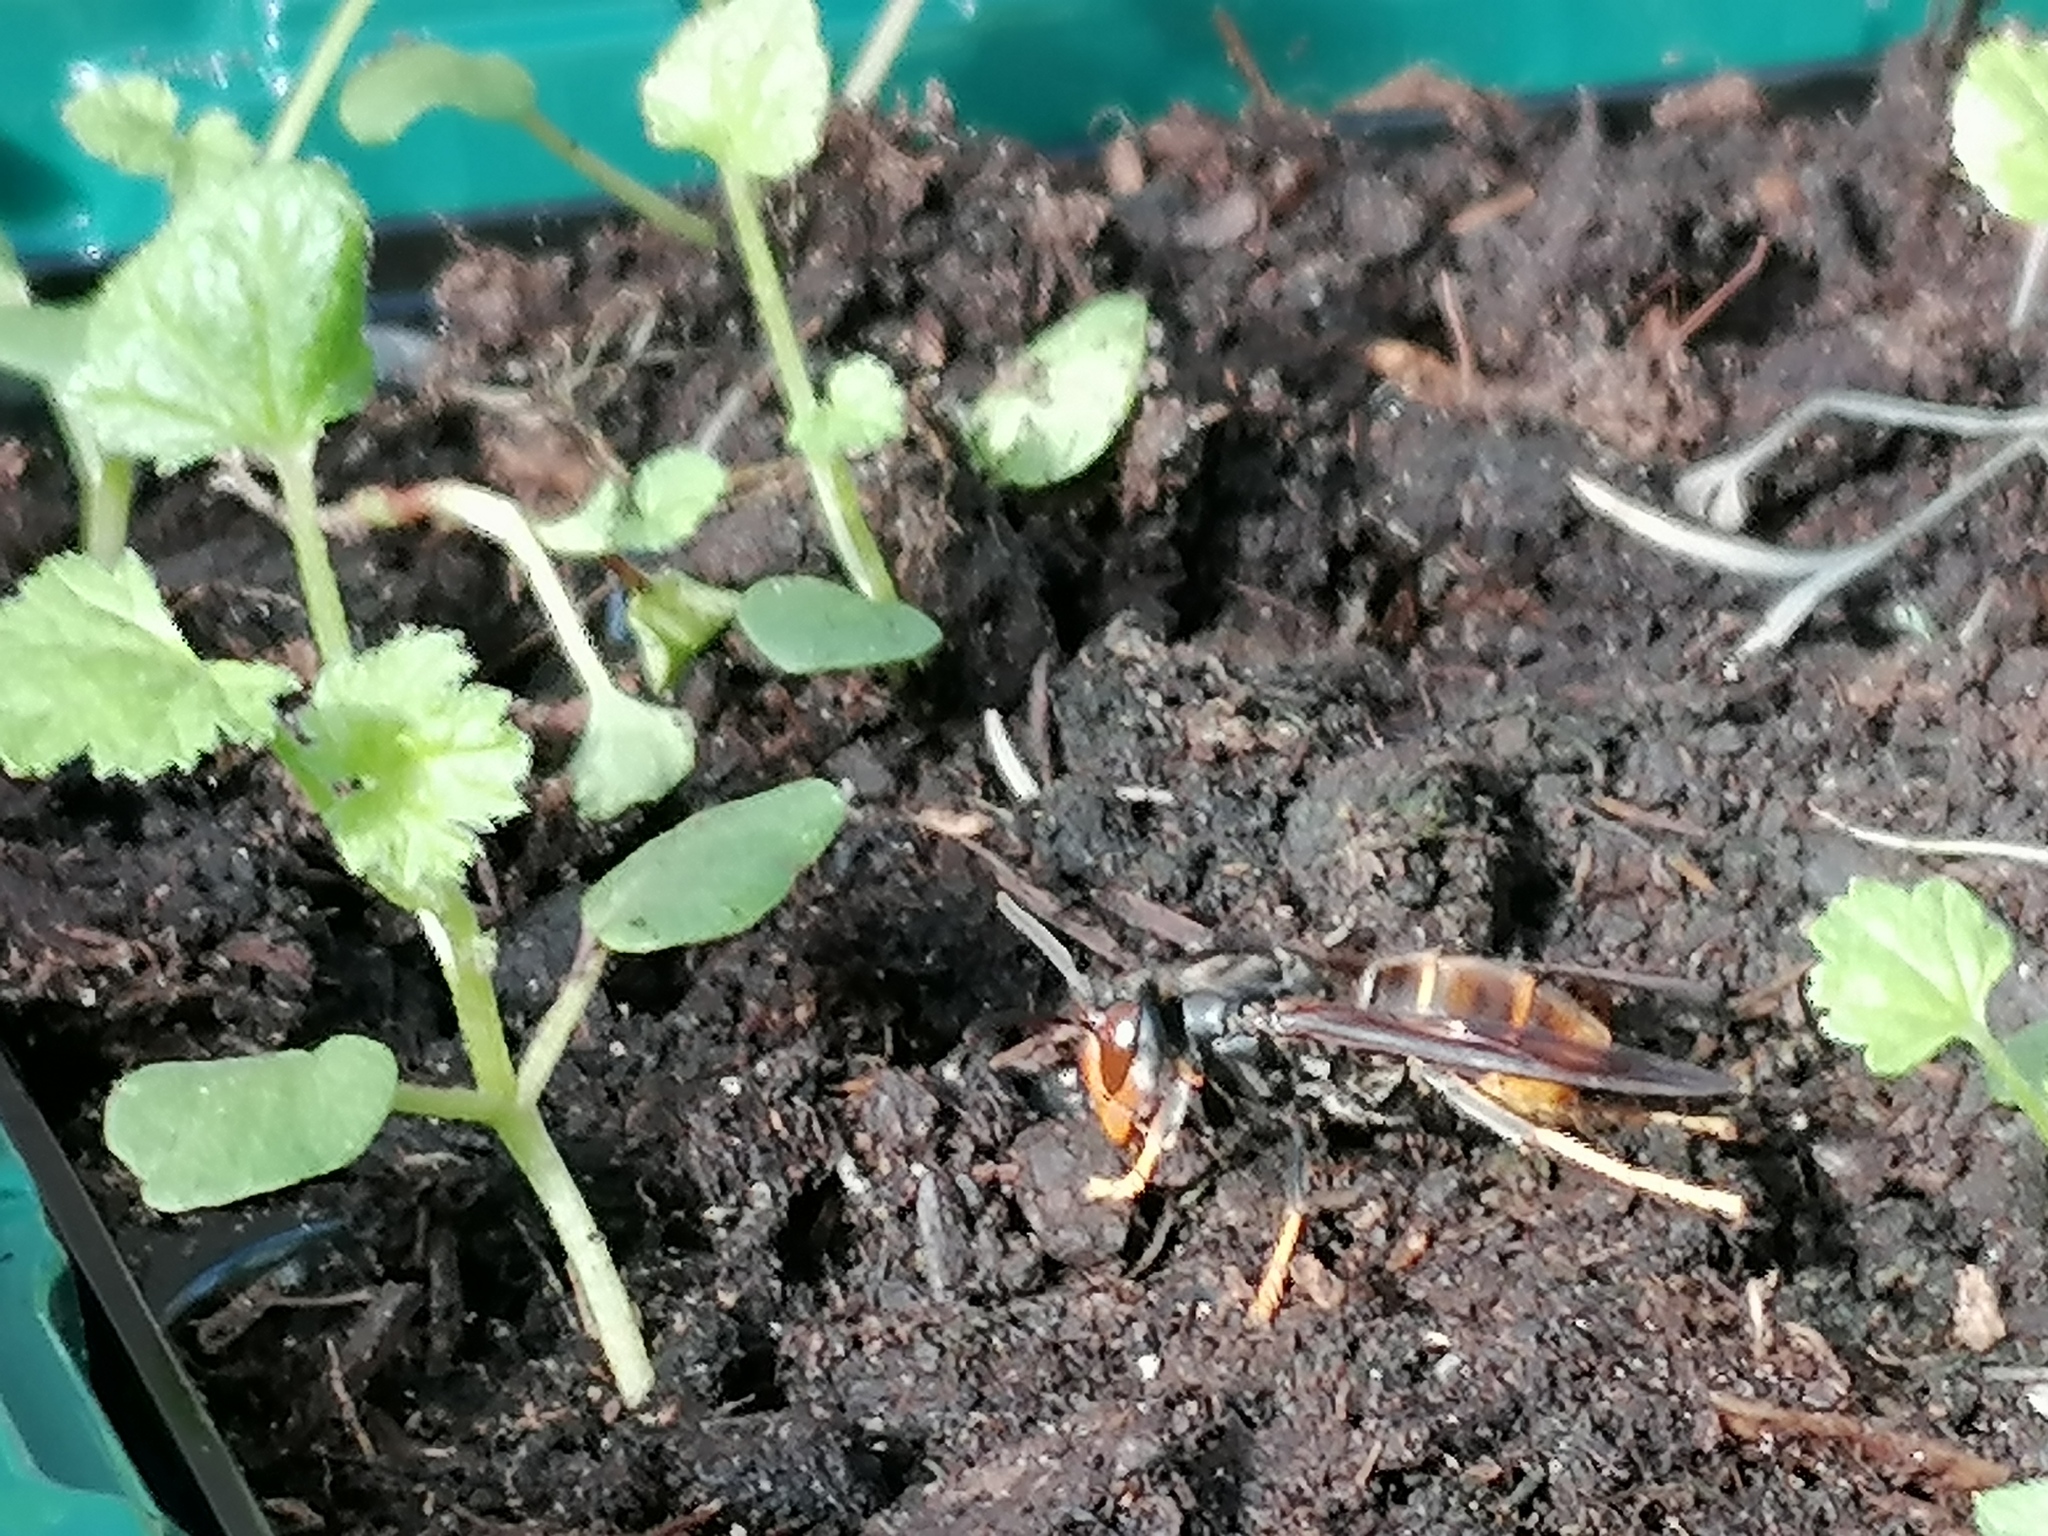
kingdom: Animalia
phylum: Arthropoda
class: Insecta
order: Hymenoptera
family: Vespidae
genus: Vespa
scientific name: Vespa velutina
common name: Asian hornet
